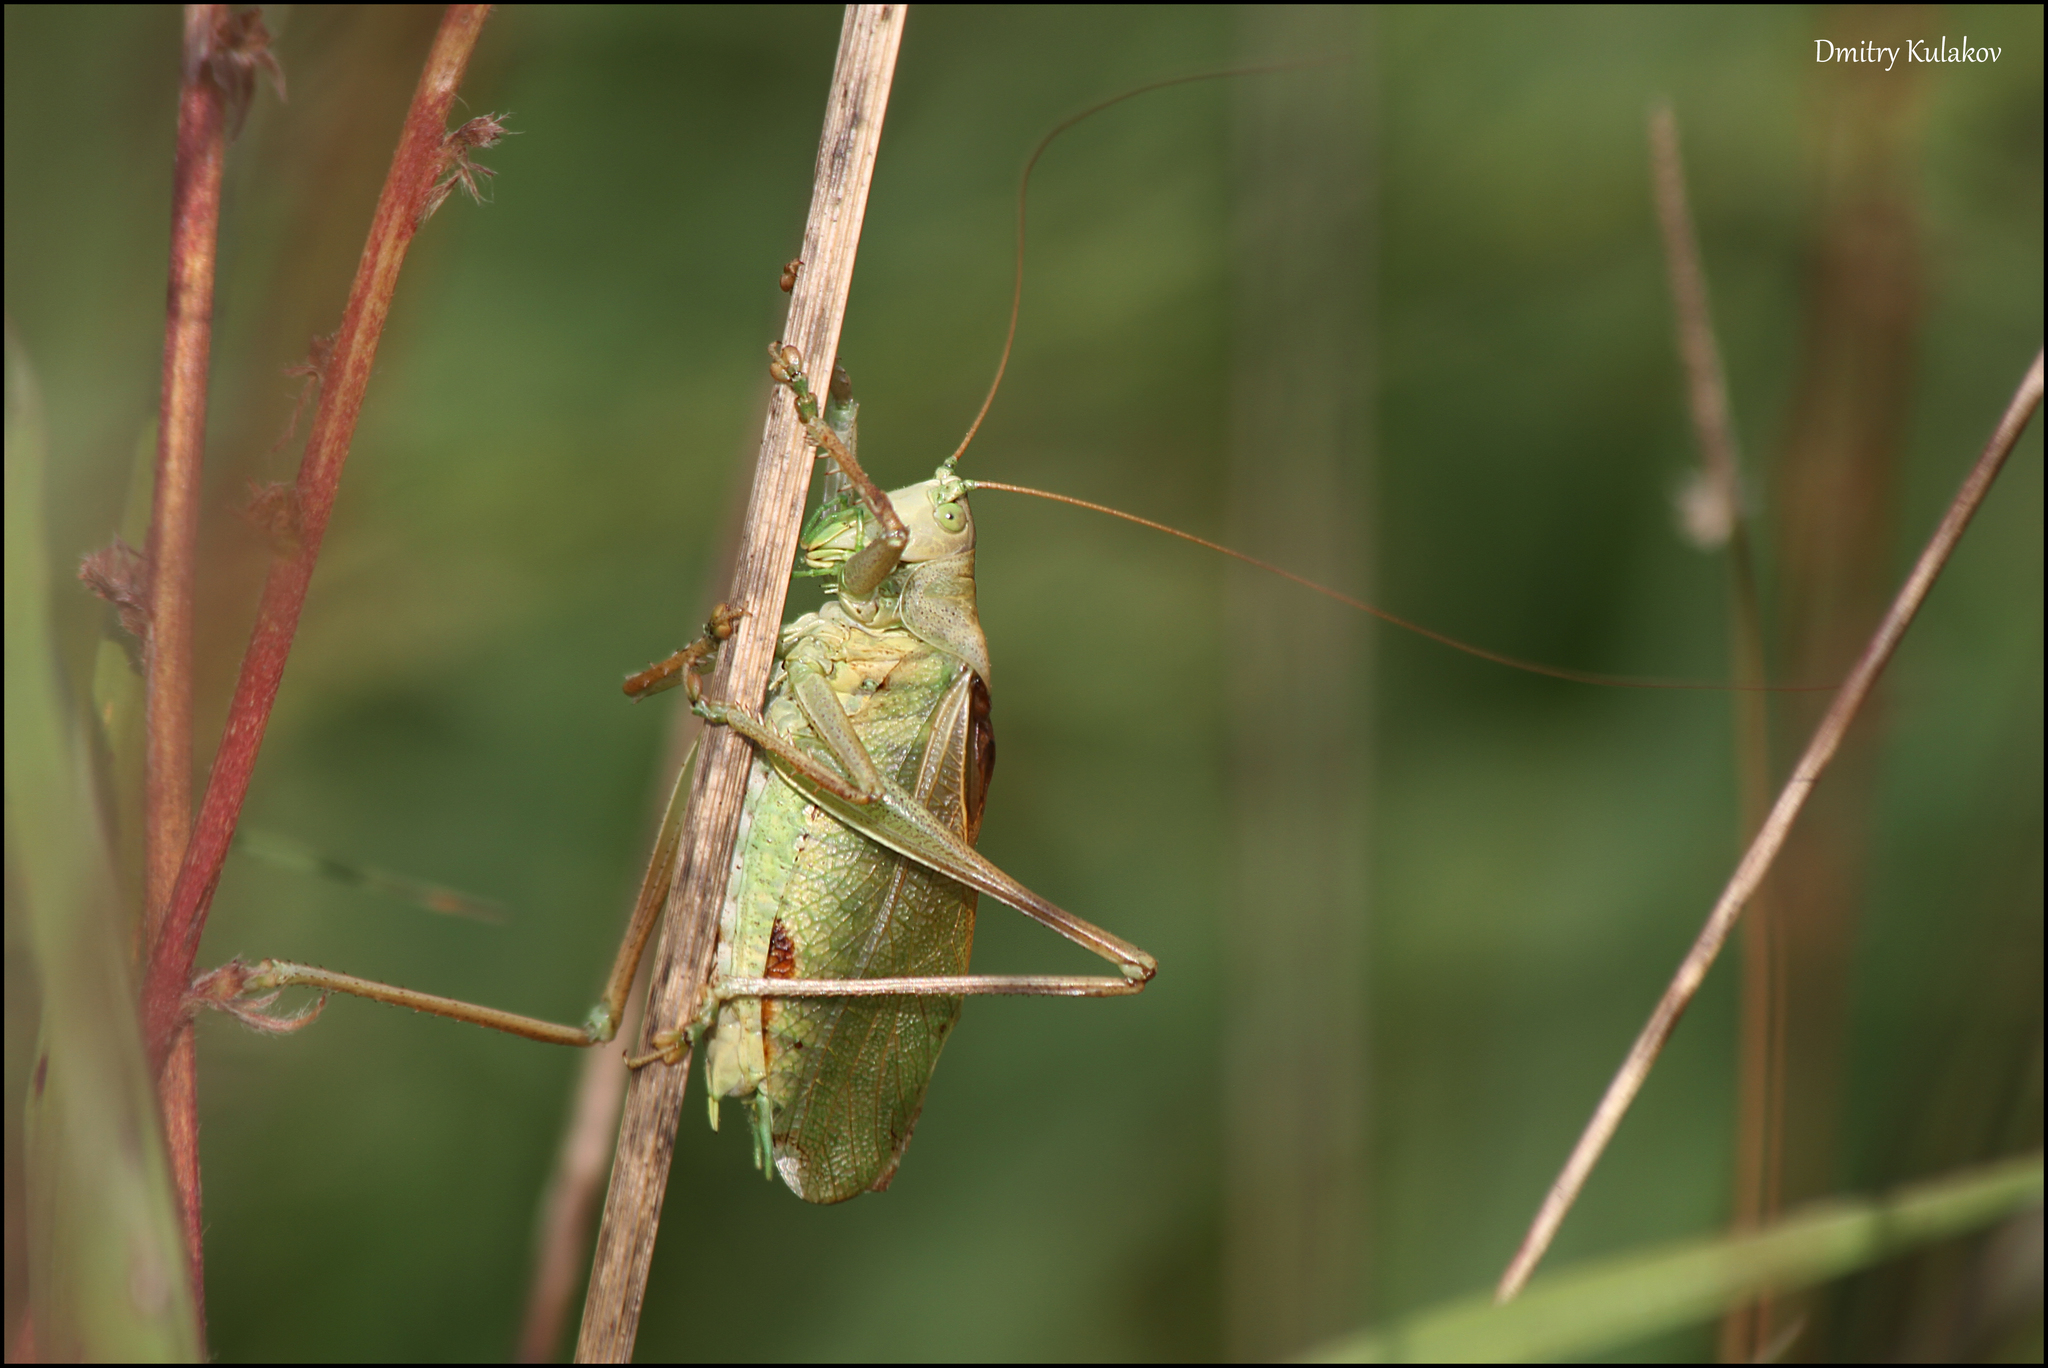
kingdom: Animalia
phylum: Arthropoda
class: Insecta
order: Orthoptera
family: Tettigoniidae
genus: Tettigonia
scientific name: Tettigonia cantans
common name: Upland green bush-cricket
